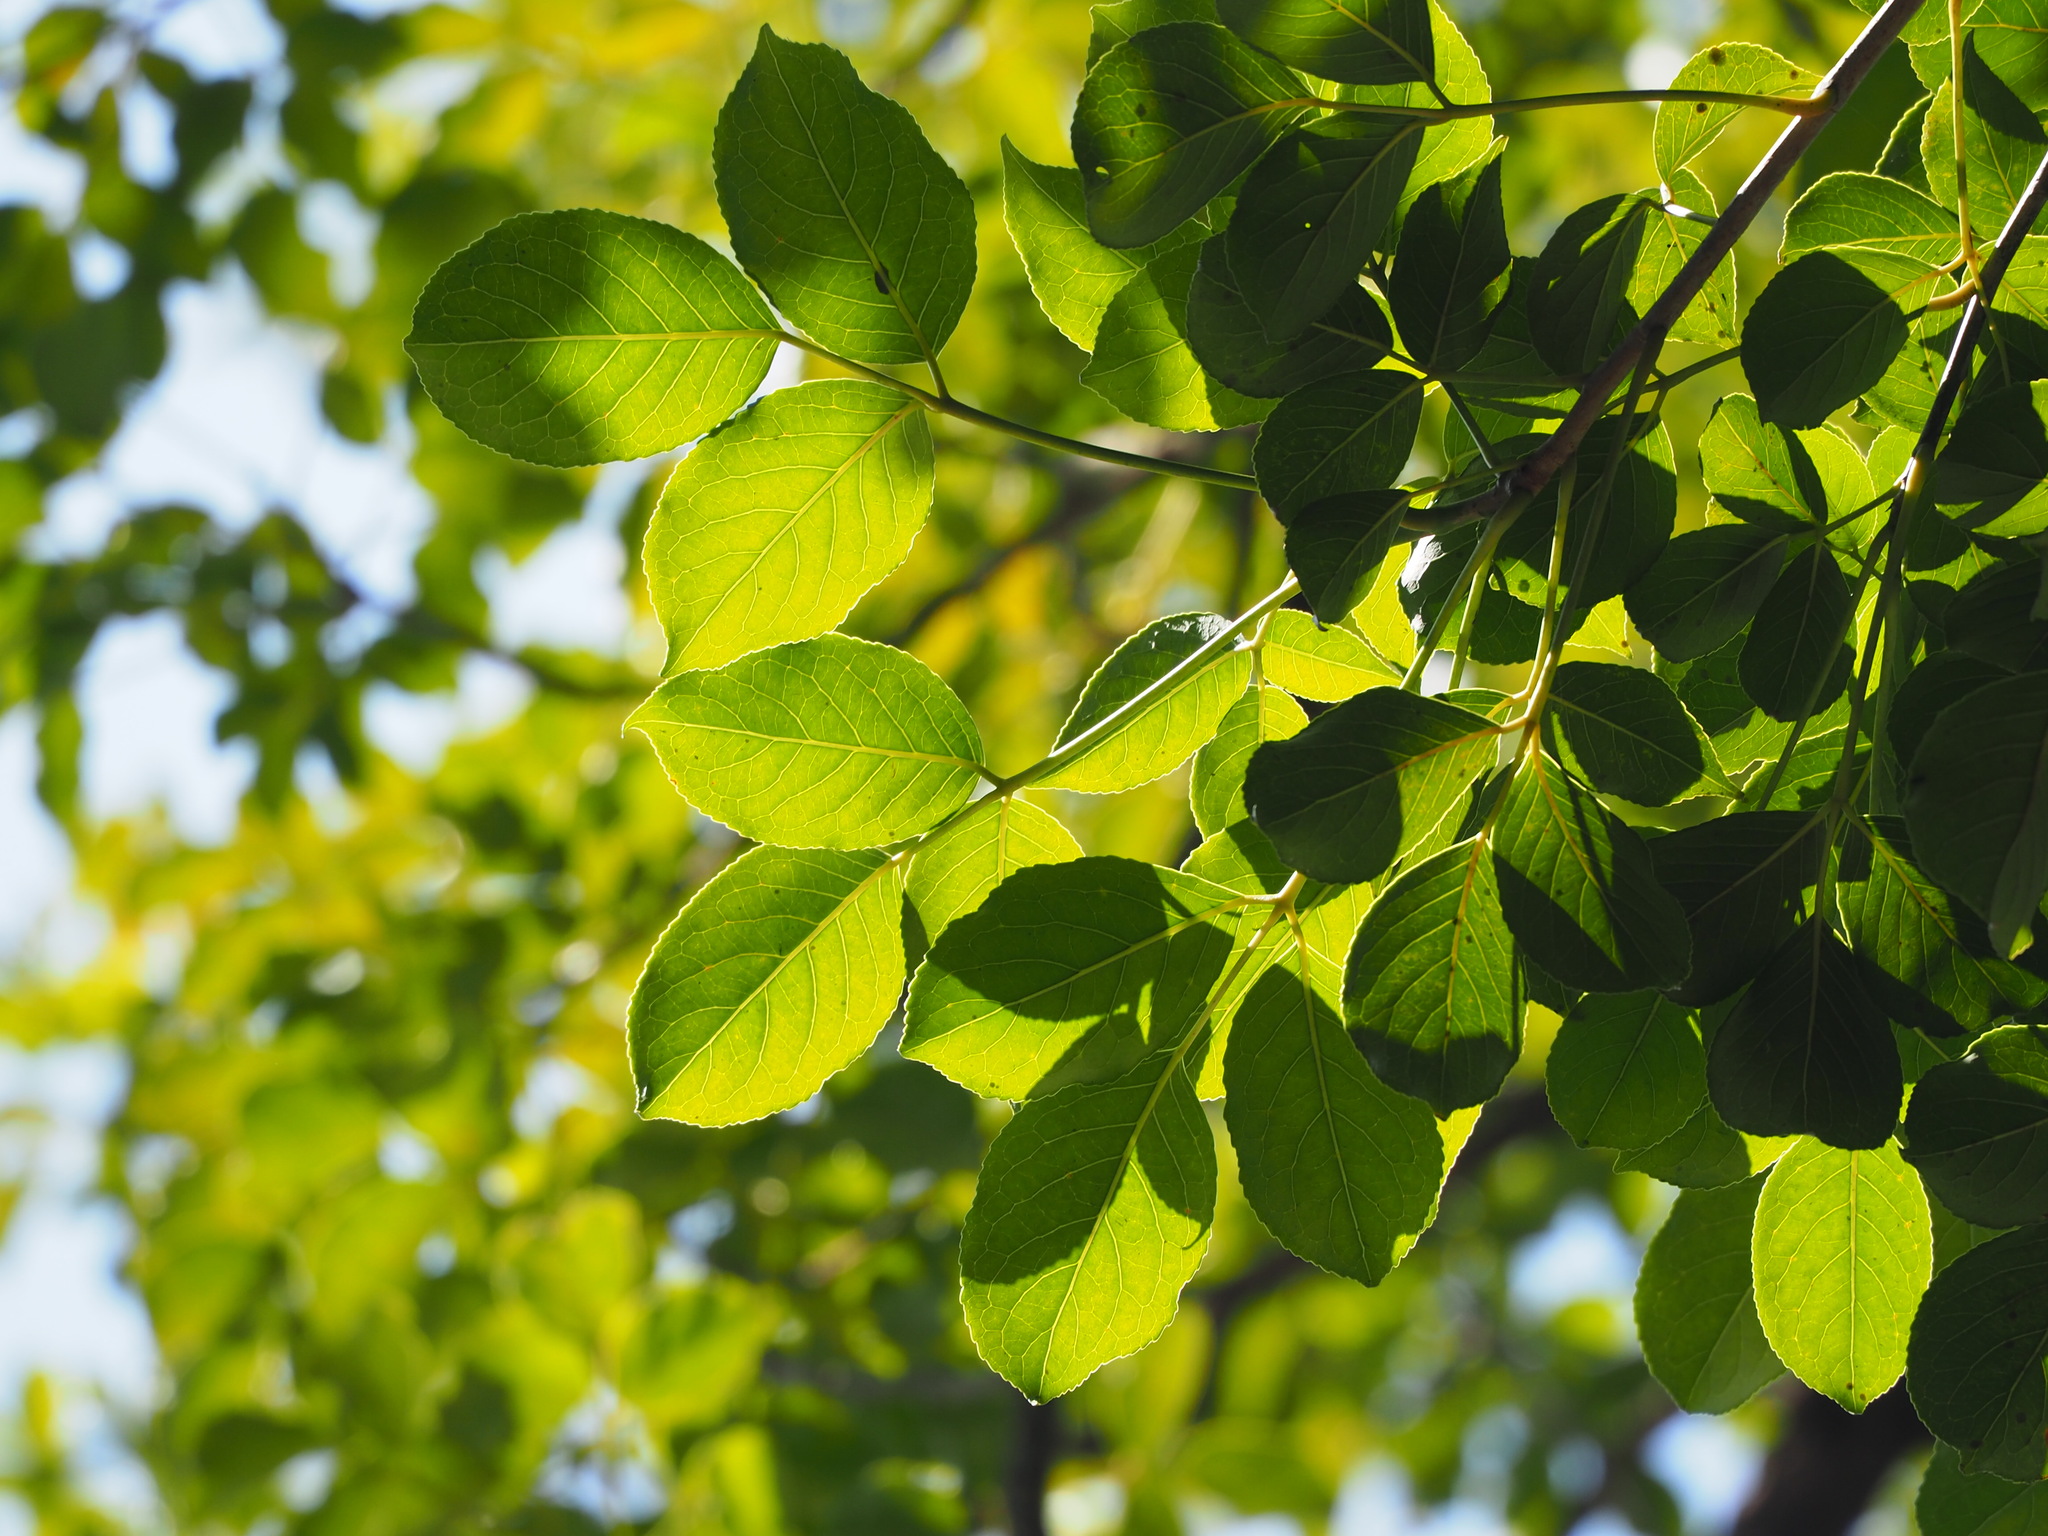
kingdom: Plantae
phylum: Tracheophyta
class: Magnoliopsida
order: Malpighiales
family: Phyllanthaceae
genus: Bischofia
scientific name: Bischofia javanica
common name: Javanese bishopwood
